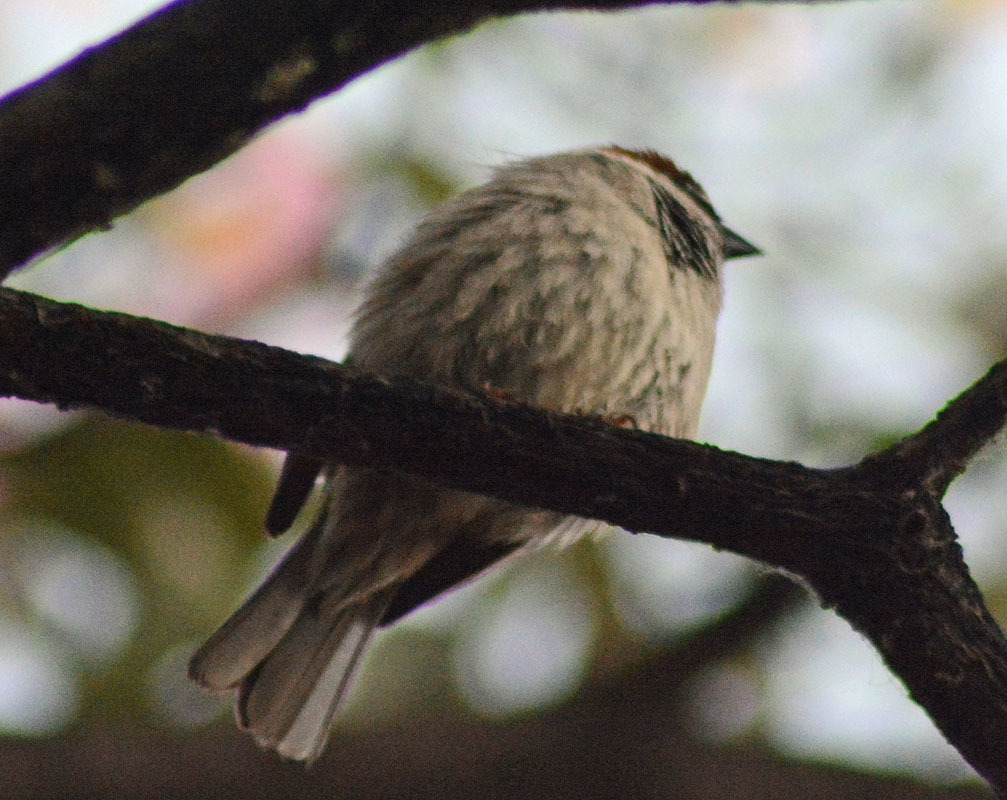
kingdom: Animalia
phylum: Chordata
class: Aves
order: Passeriformes
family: Passeridae
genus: Passer
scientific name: Passer domesticus
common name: House sparrow
